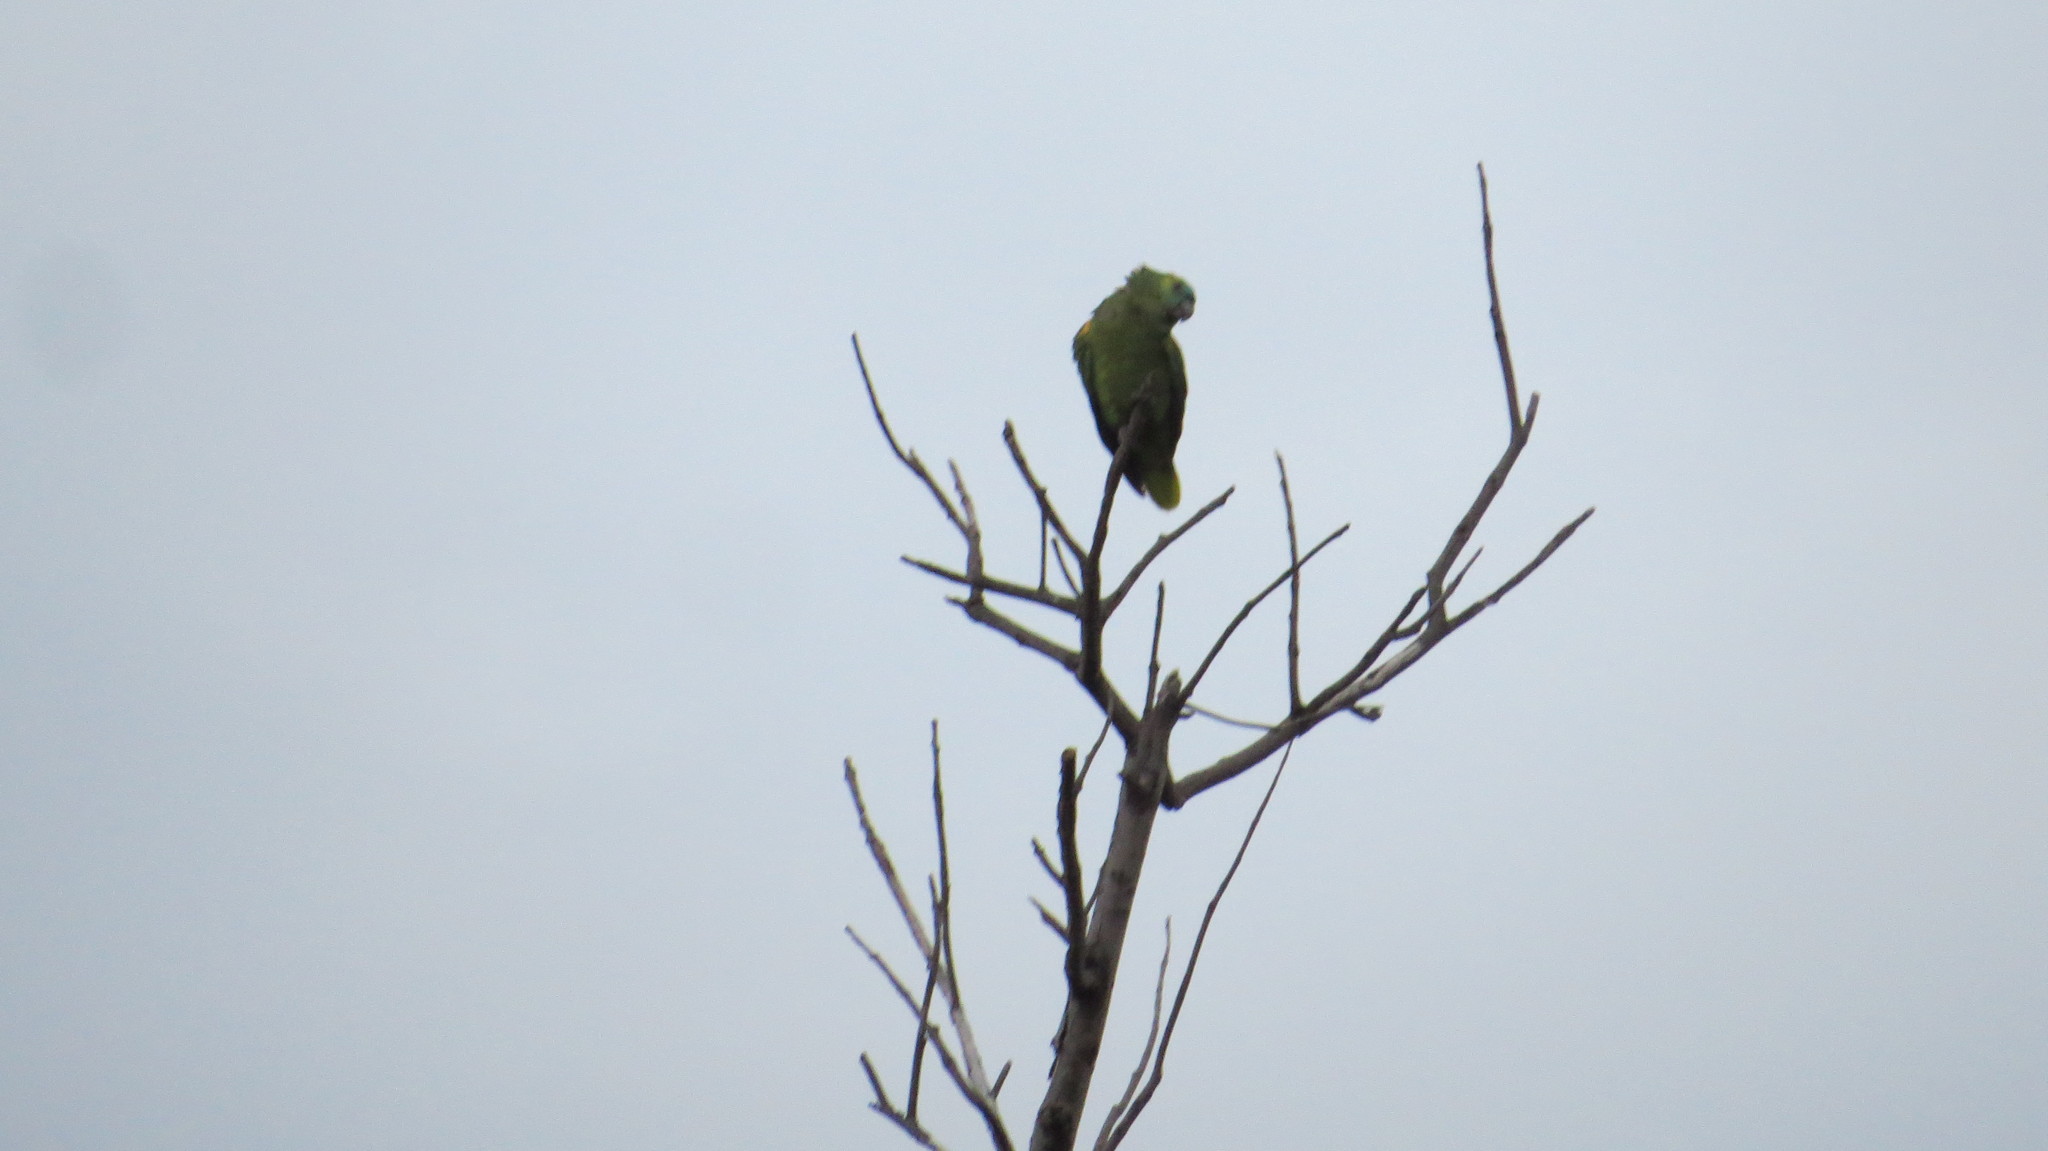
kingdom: Animalia
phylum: Chordata
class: Aves
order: Psittaciformes
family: Psittacidae
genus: Amazona
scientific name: Amazona aestiva
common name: Turquoise-fronted amazon
